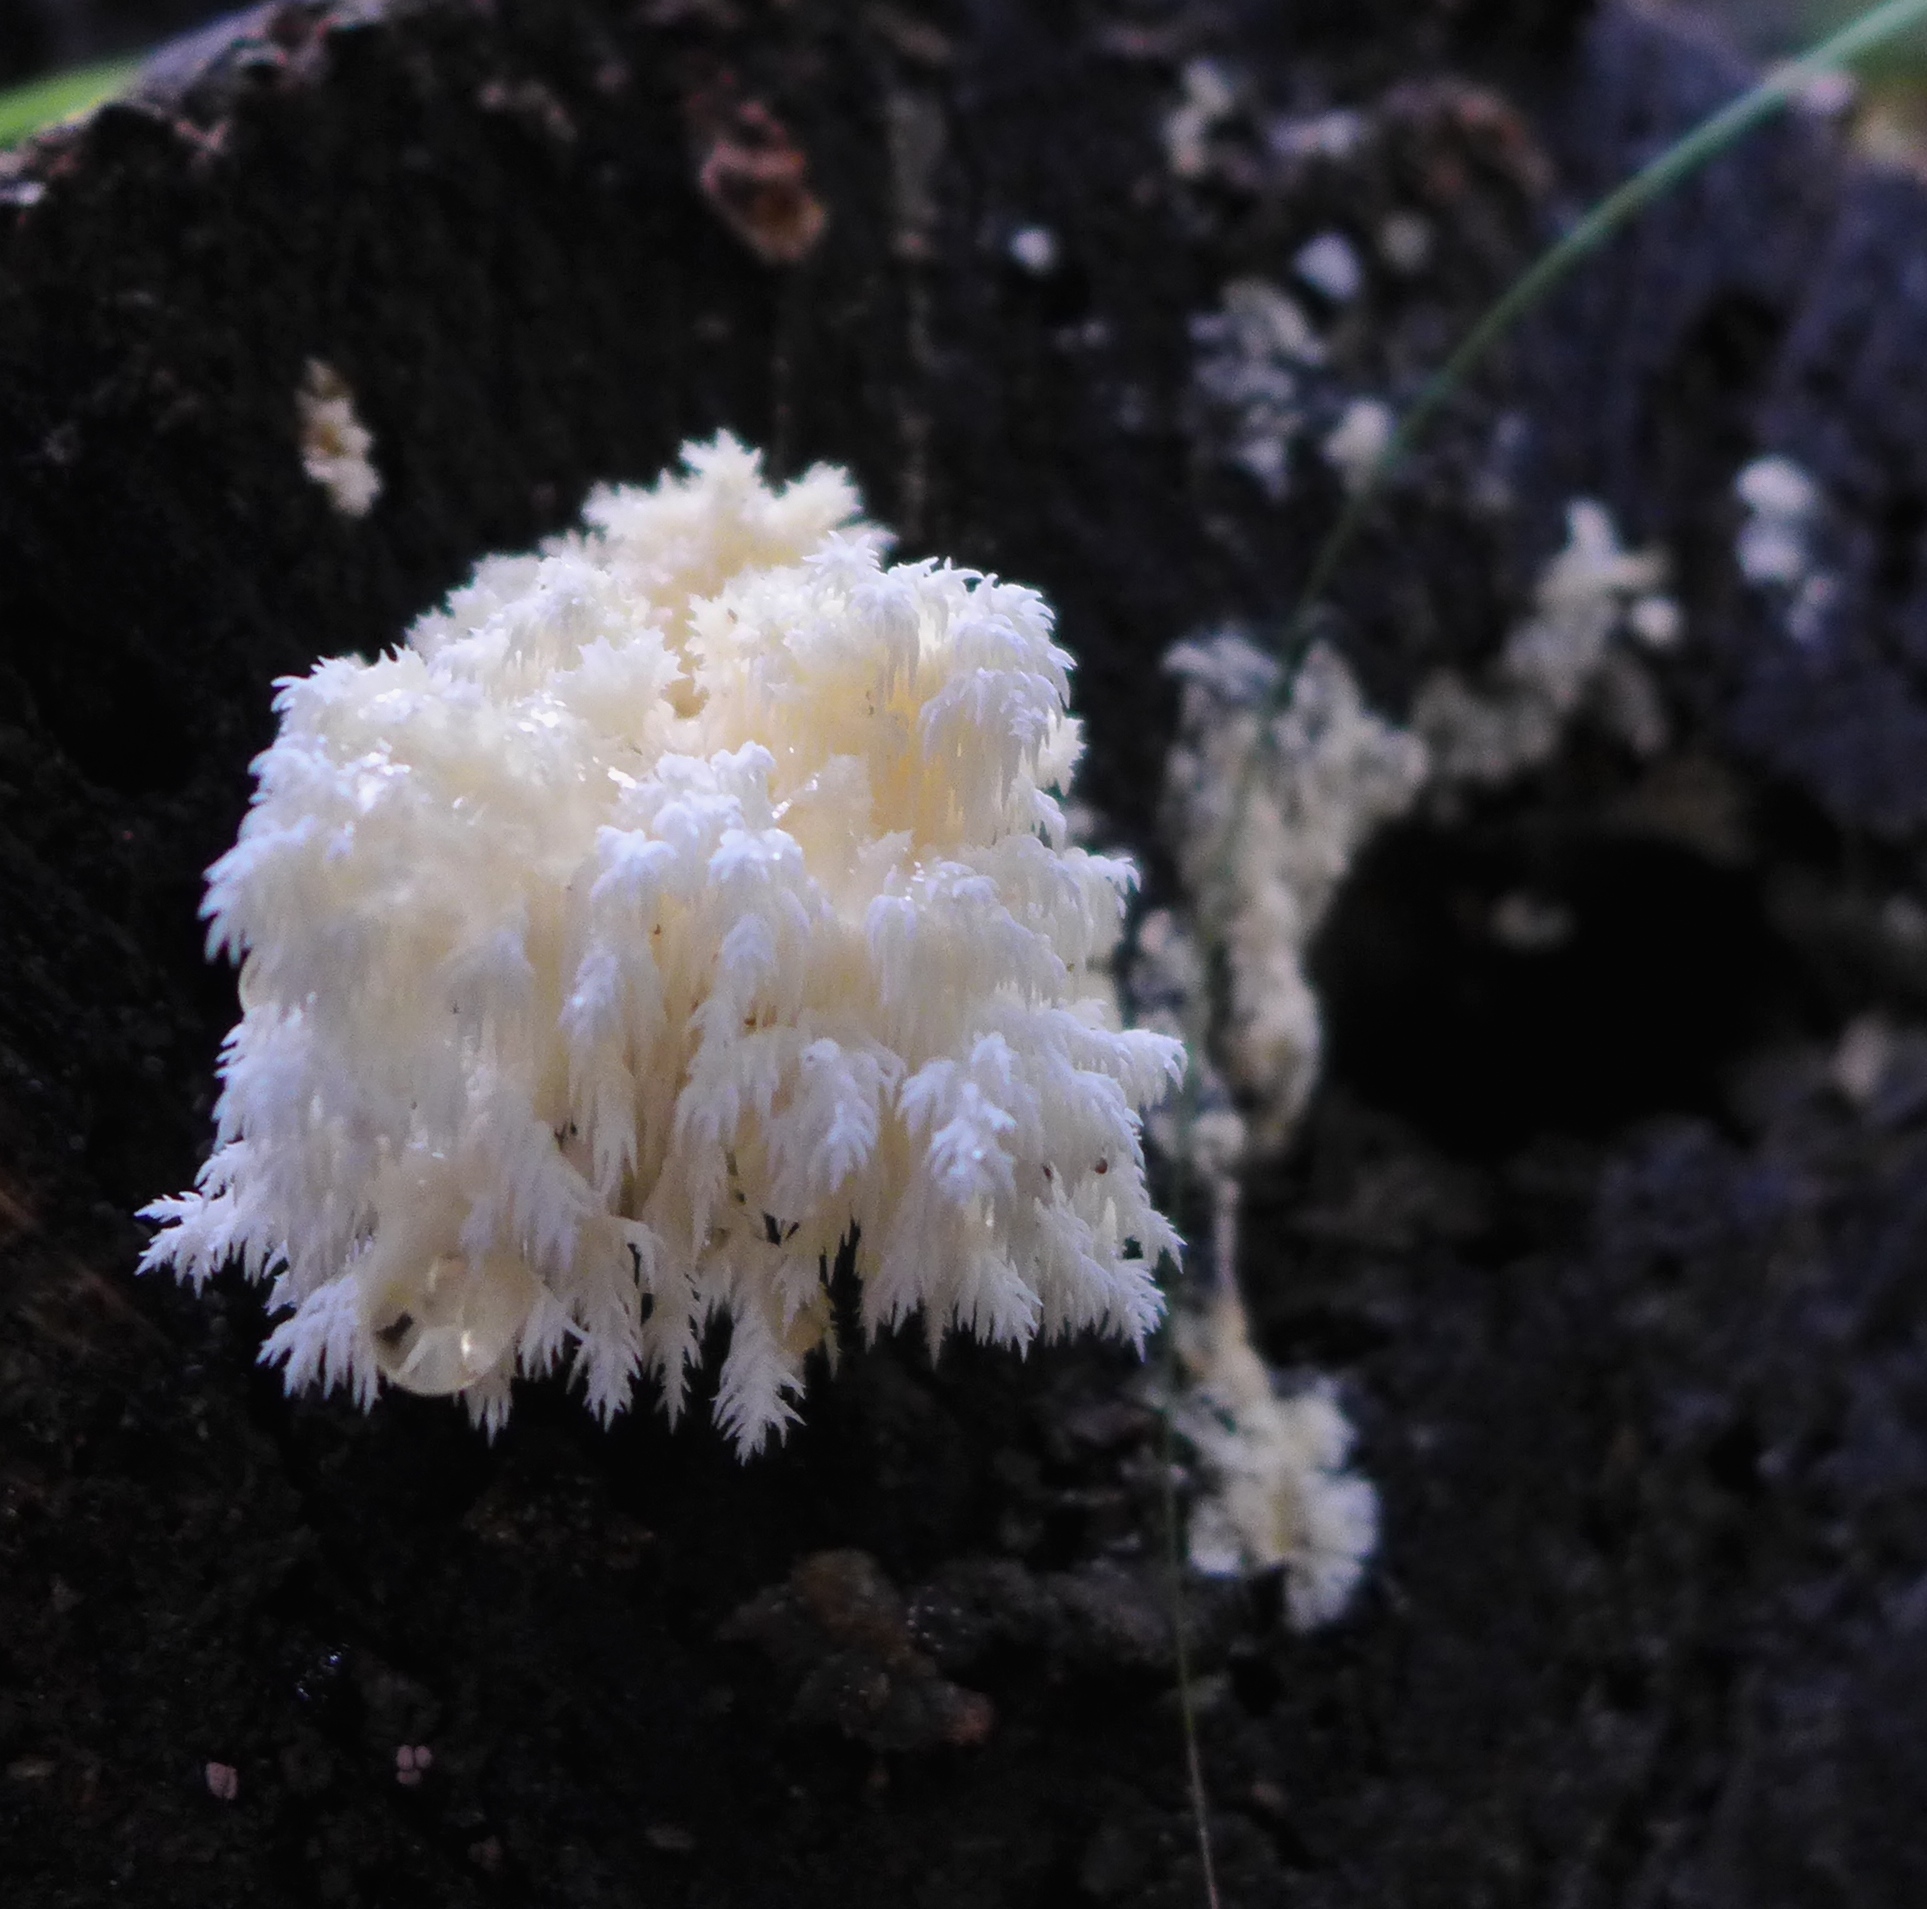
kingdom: Fungi
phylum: Basidiomycota
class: Agaricomycetes
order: Russulales
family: Hericiaceae
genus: Hericium
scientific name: Hericium coralloides
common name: Coral tooth
